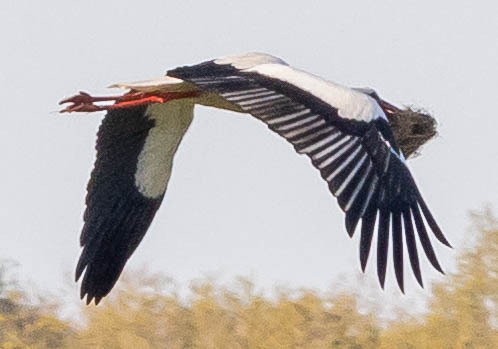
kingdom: Animalia
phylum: Chordata
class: Aves
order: Ciconiiformes
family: Ciconiidae
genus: Ciconia
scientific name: Ciconia ciconia
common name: White stork
